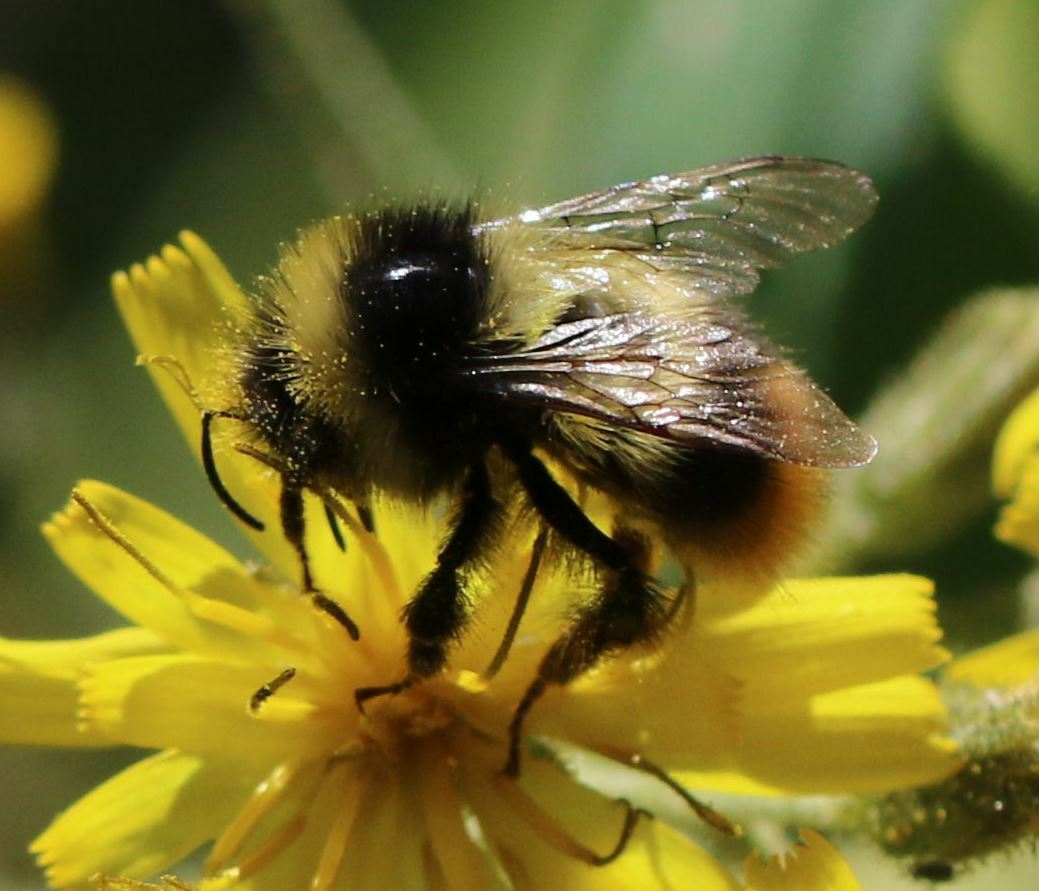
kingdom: Animalia
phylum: Arthropoda
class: Insecta
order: Hymenoptera
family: Apidae
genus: Bombus
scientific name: Bombus sichelii
